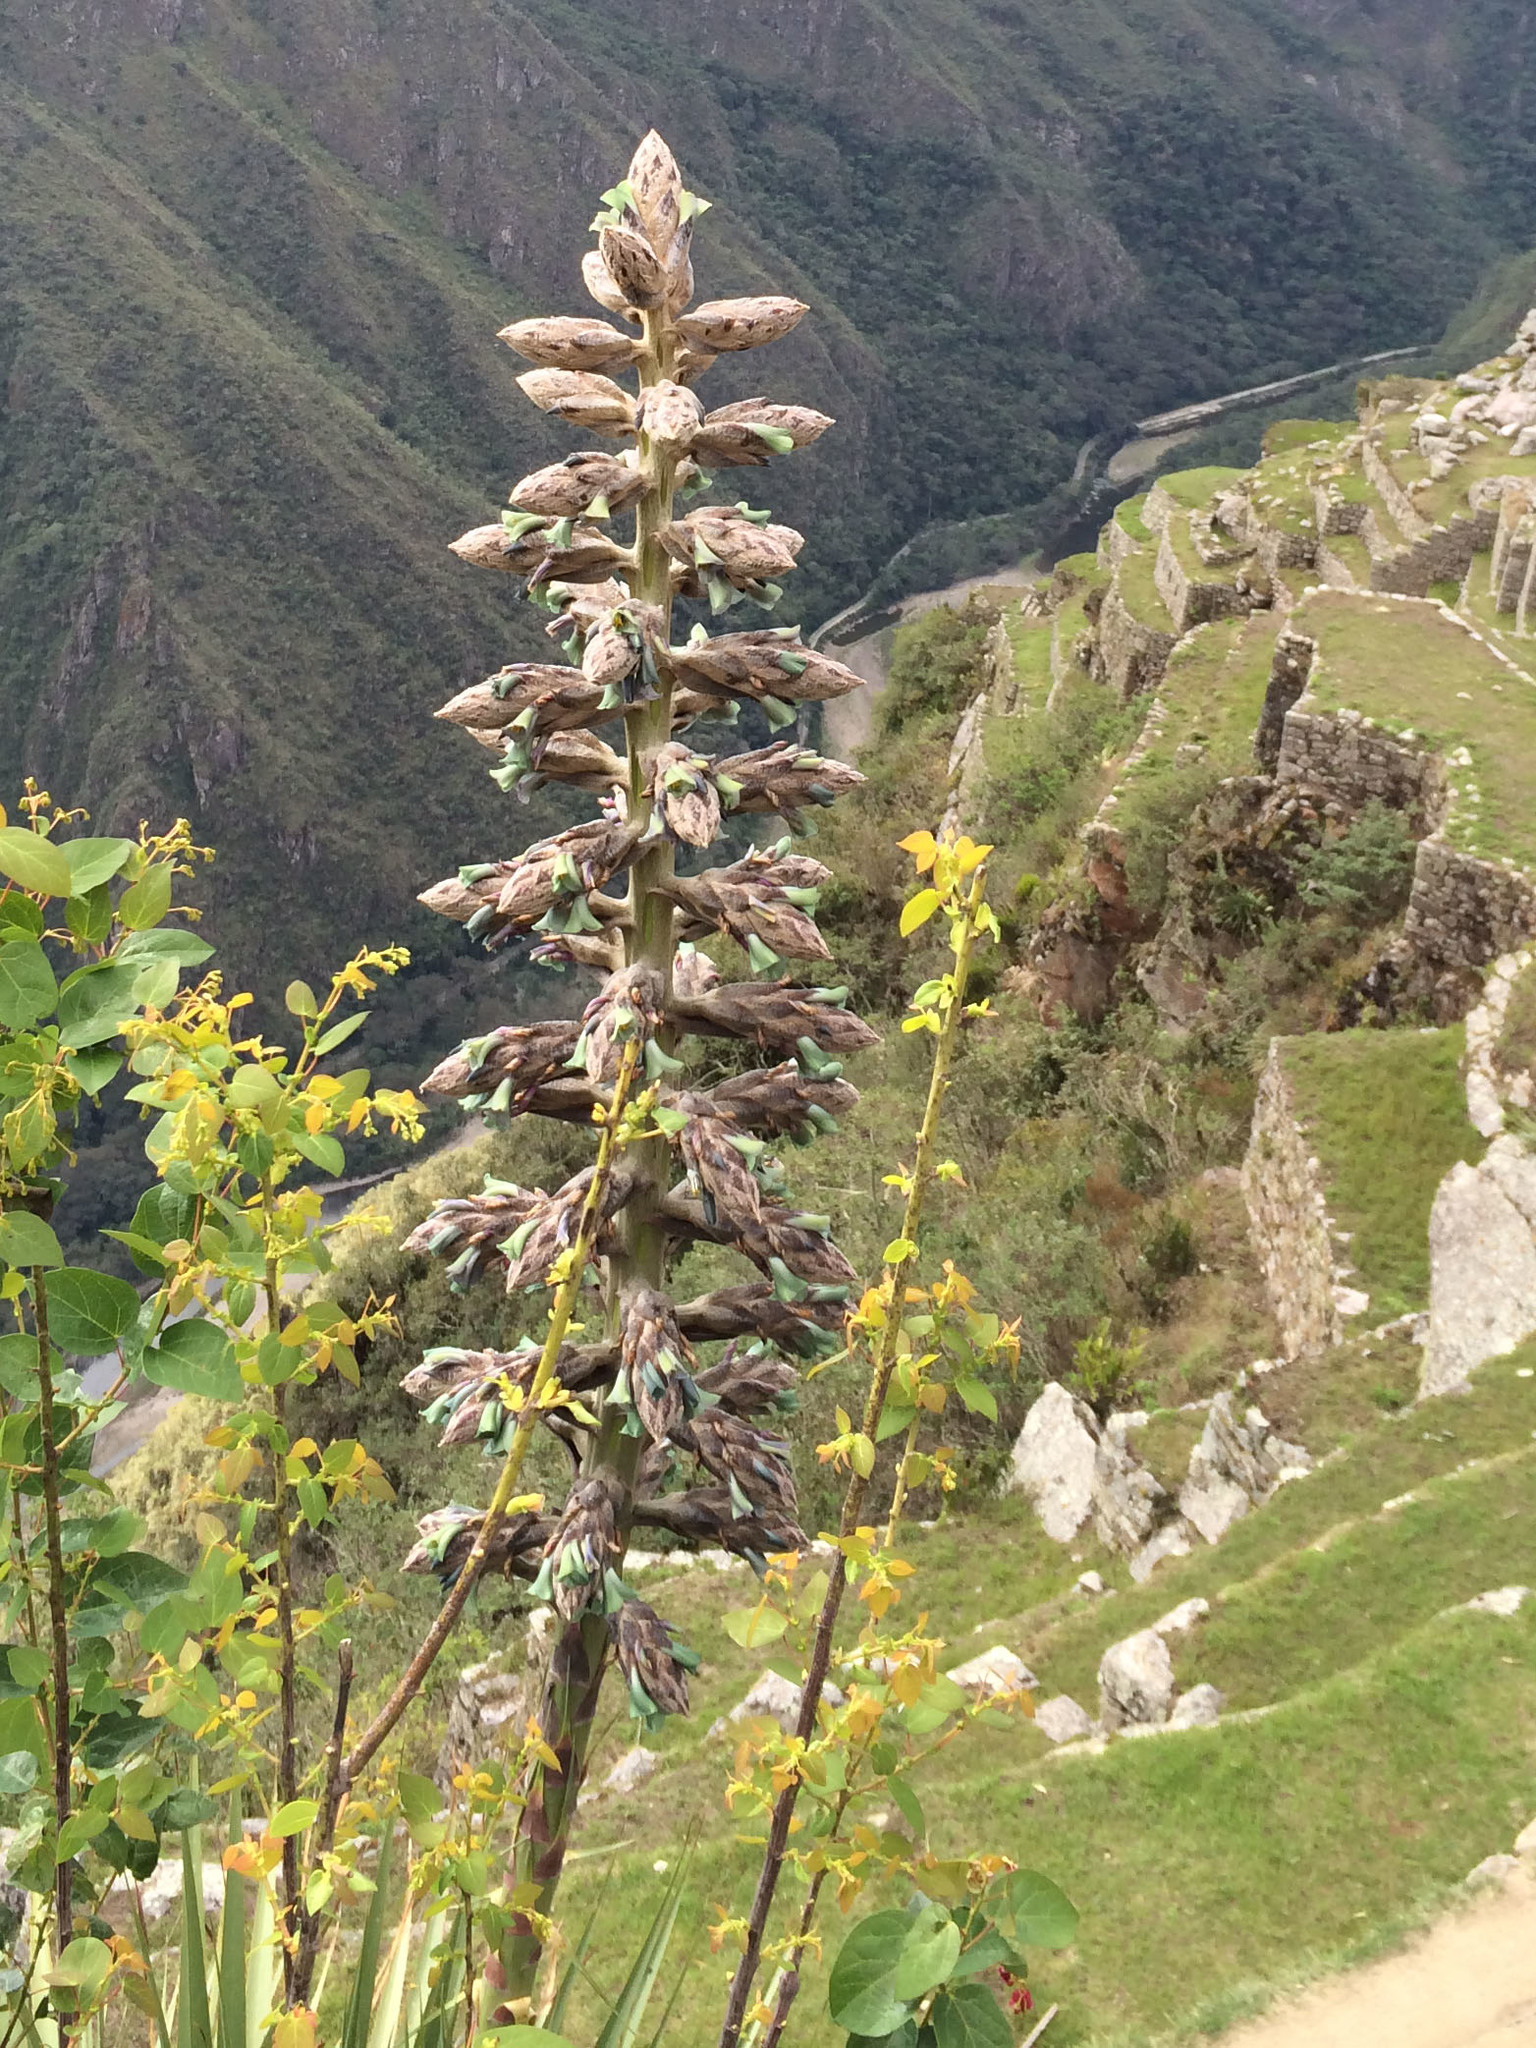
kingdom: Plantae
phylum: Tracheophyta
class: Liliopsida
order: Poales
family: Bromeliaceae
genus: Puya
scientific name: Puya weberbaueri
